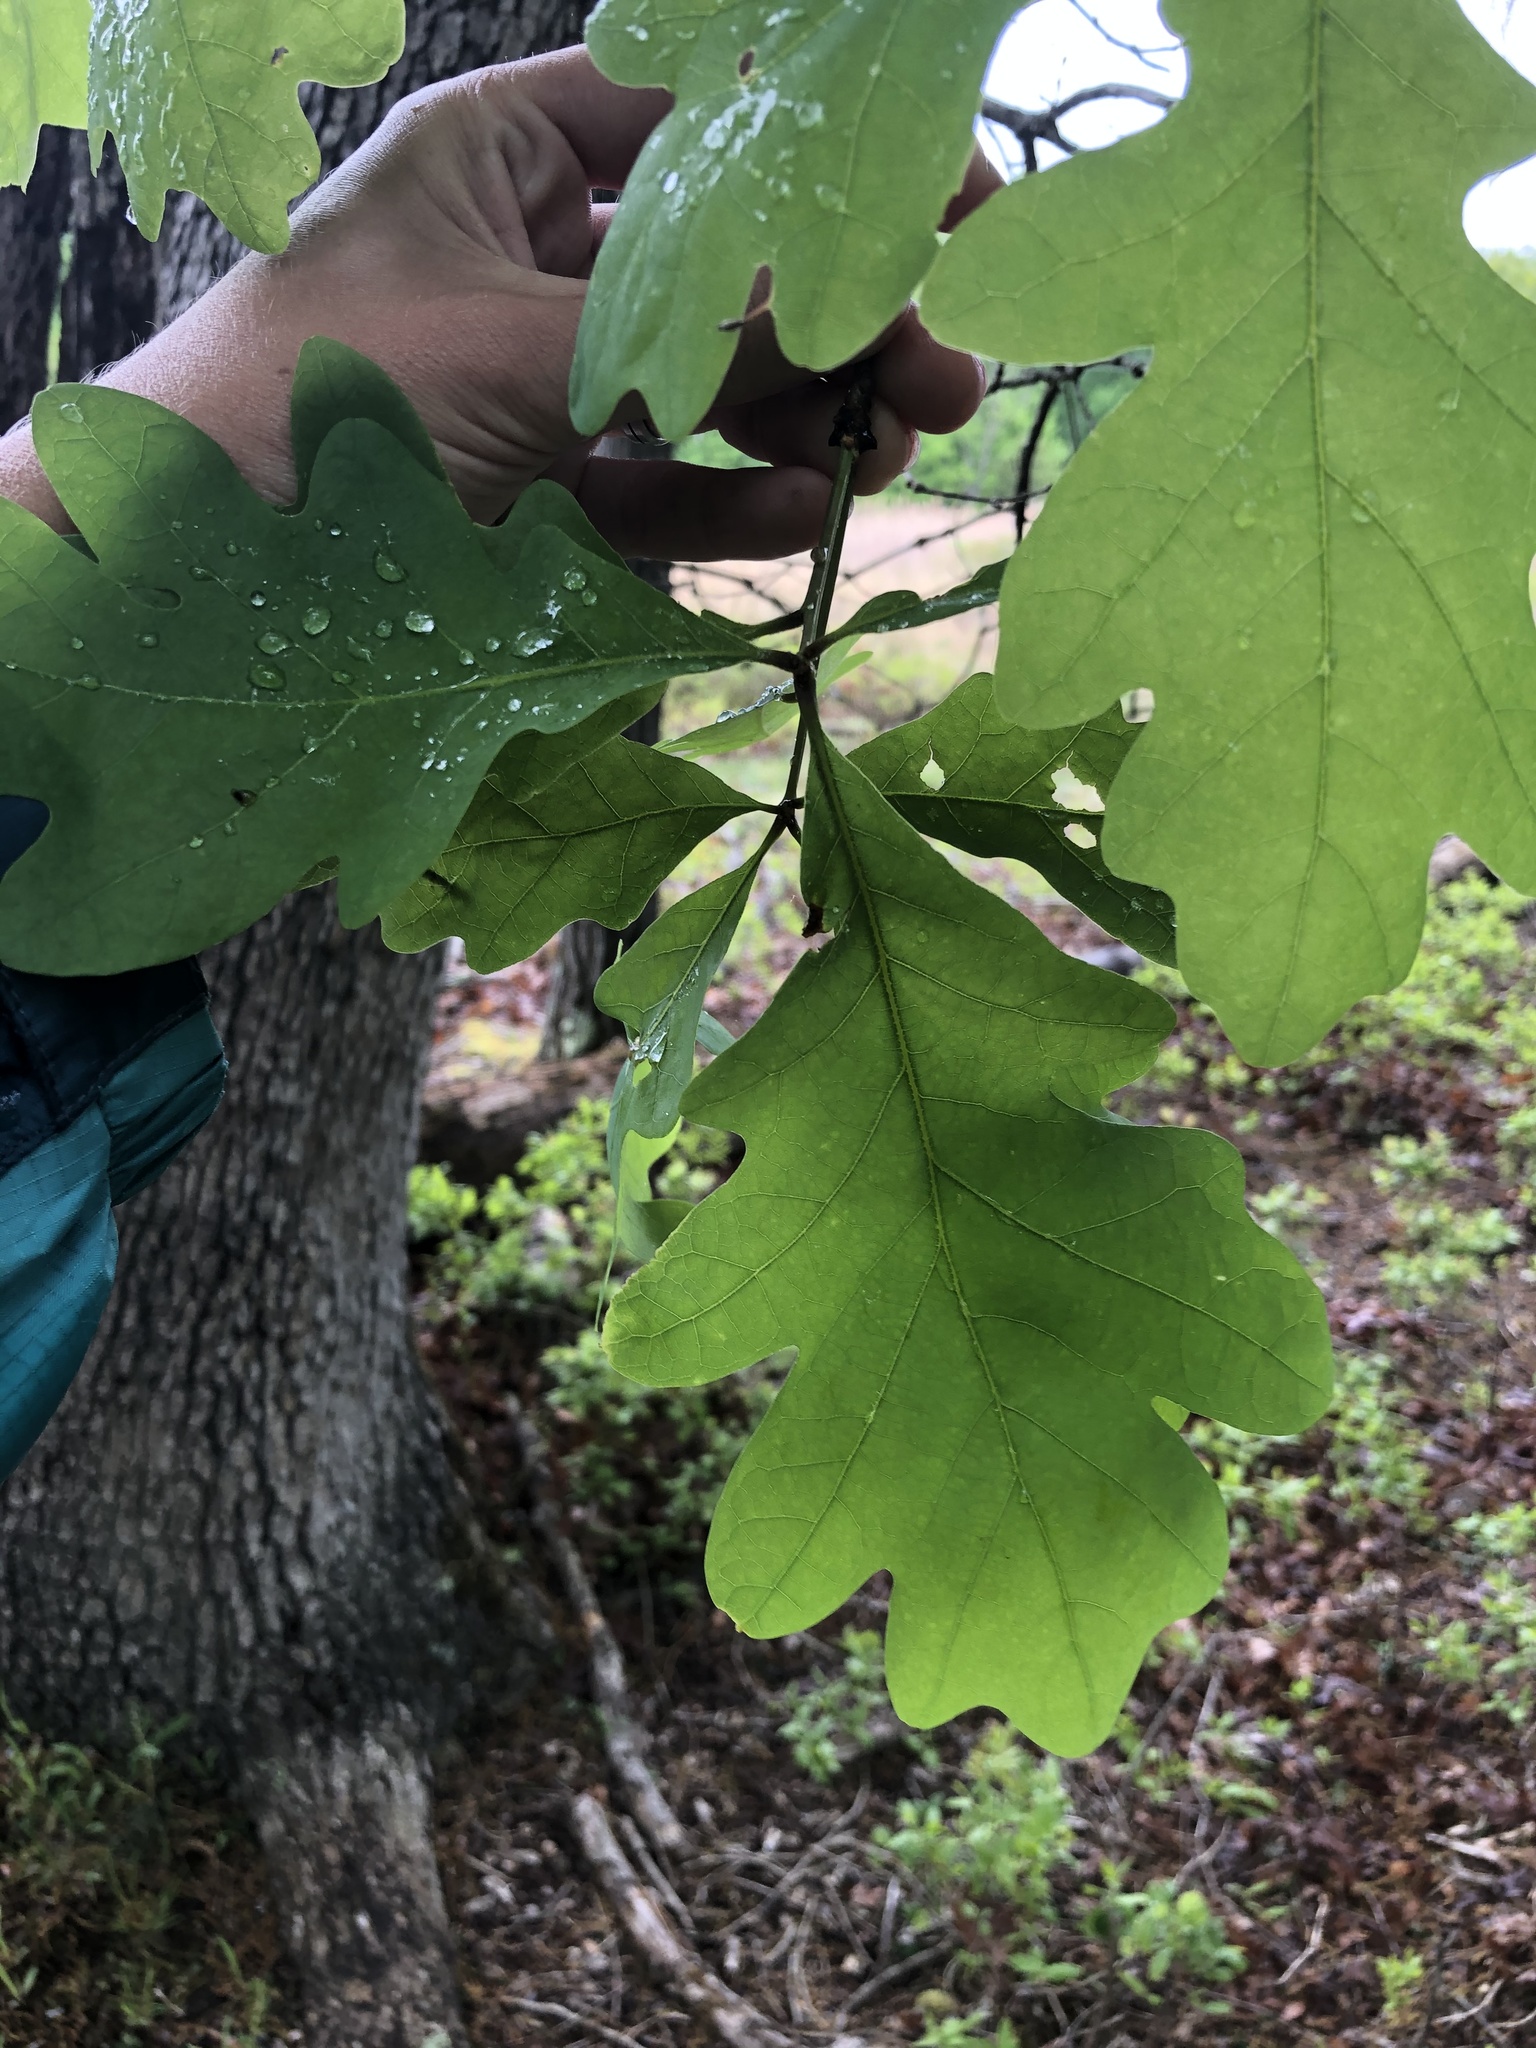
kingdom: Plantae
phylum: Tracheophyta
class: Magnoliopsida
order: Fagales
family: Fagaceae
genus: Quercus
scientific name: Quercus alba
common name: White oak
